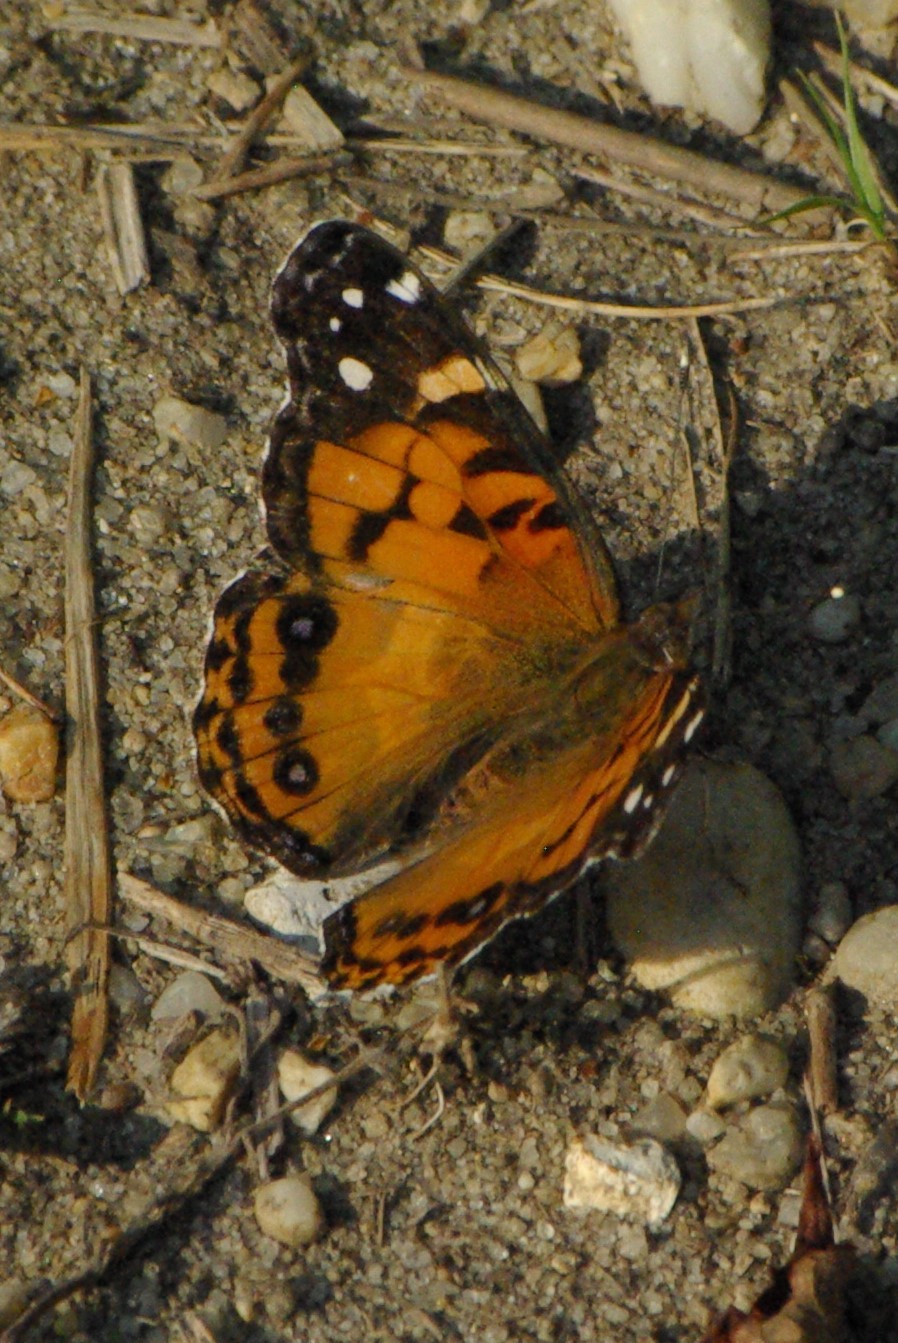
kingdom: Animalia
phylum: Arthropoda
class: Insecta
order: Lepidoptera
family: Nymphalidae
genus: Vanessa
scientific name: Vanessa virginiensis
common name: American lady
